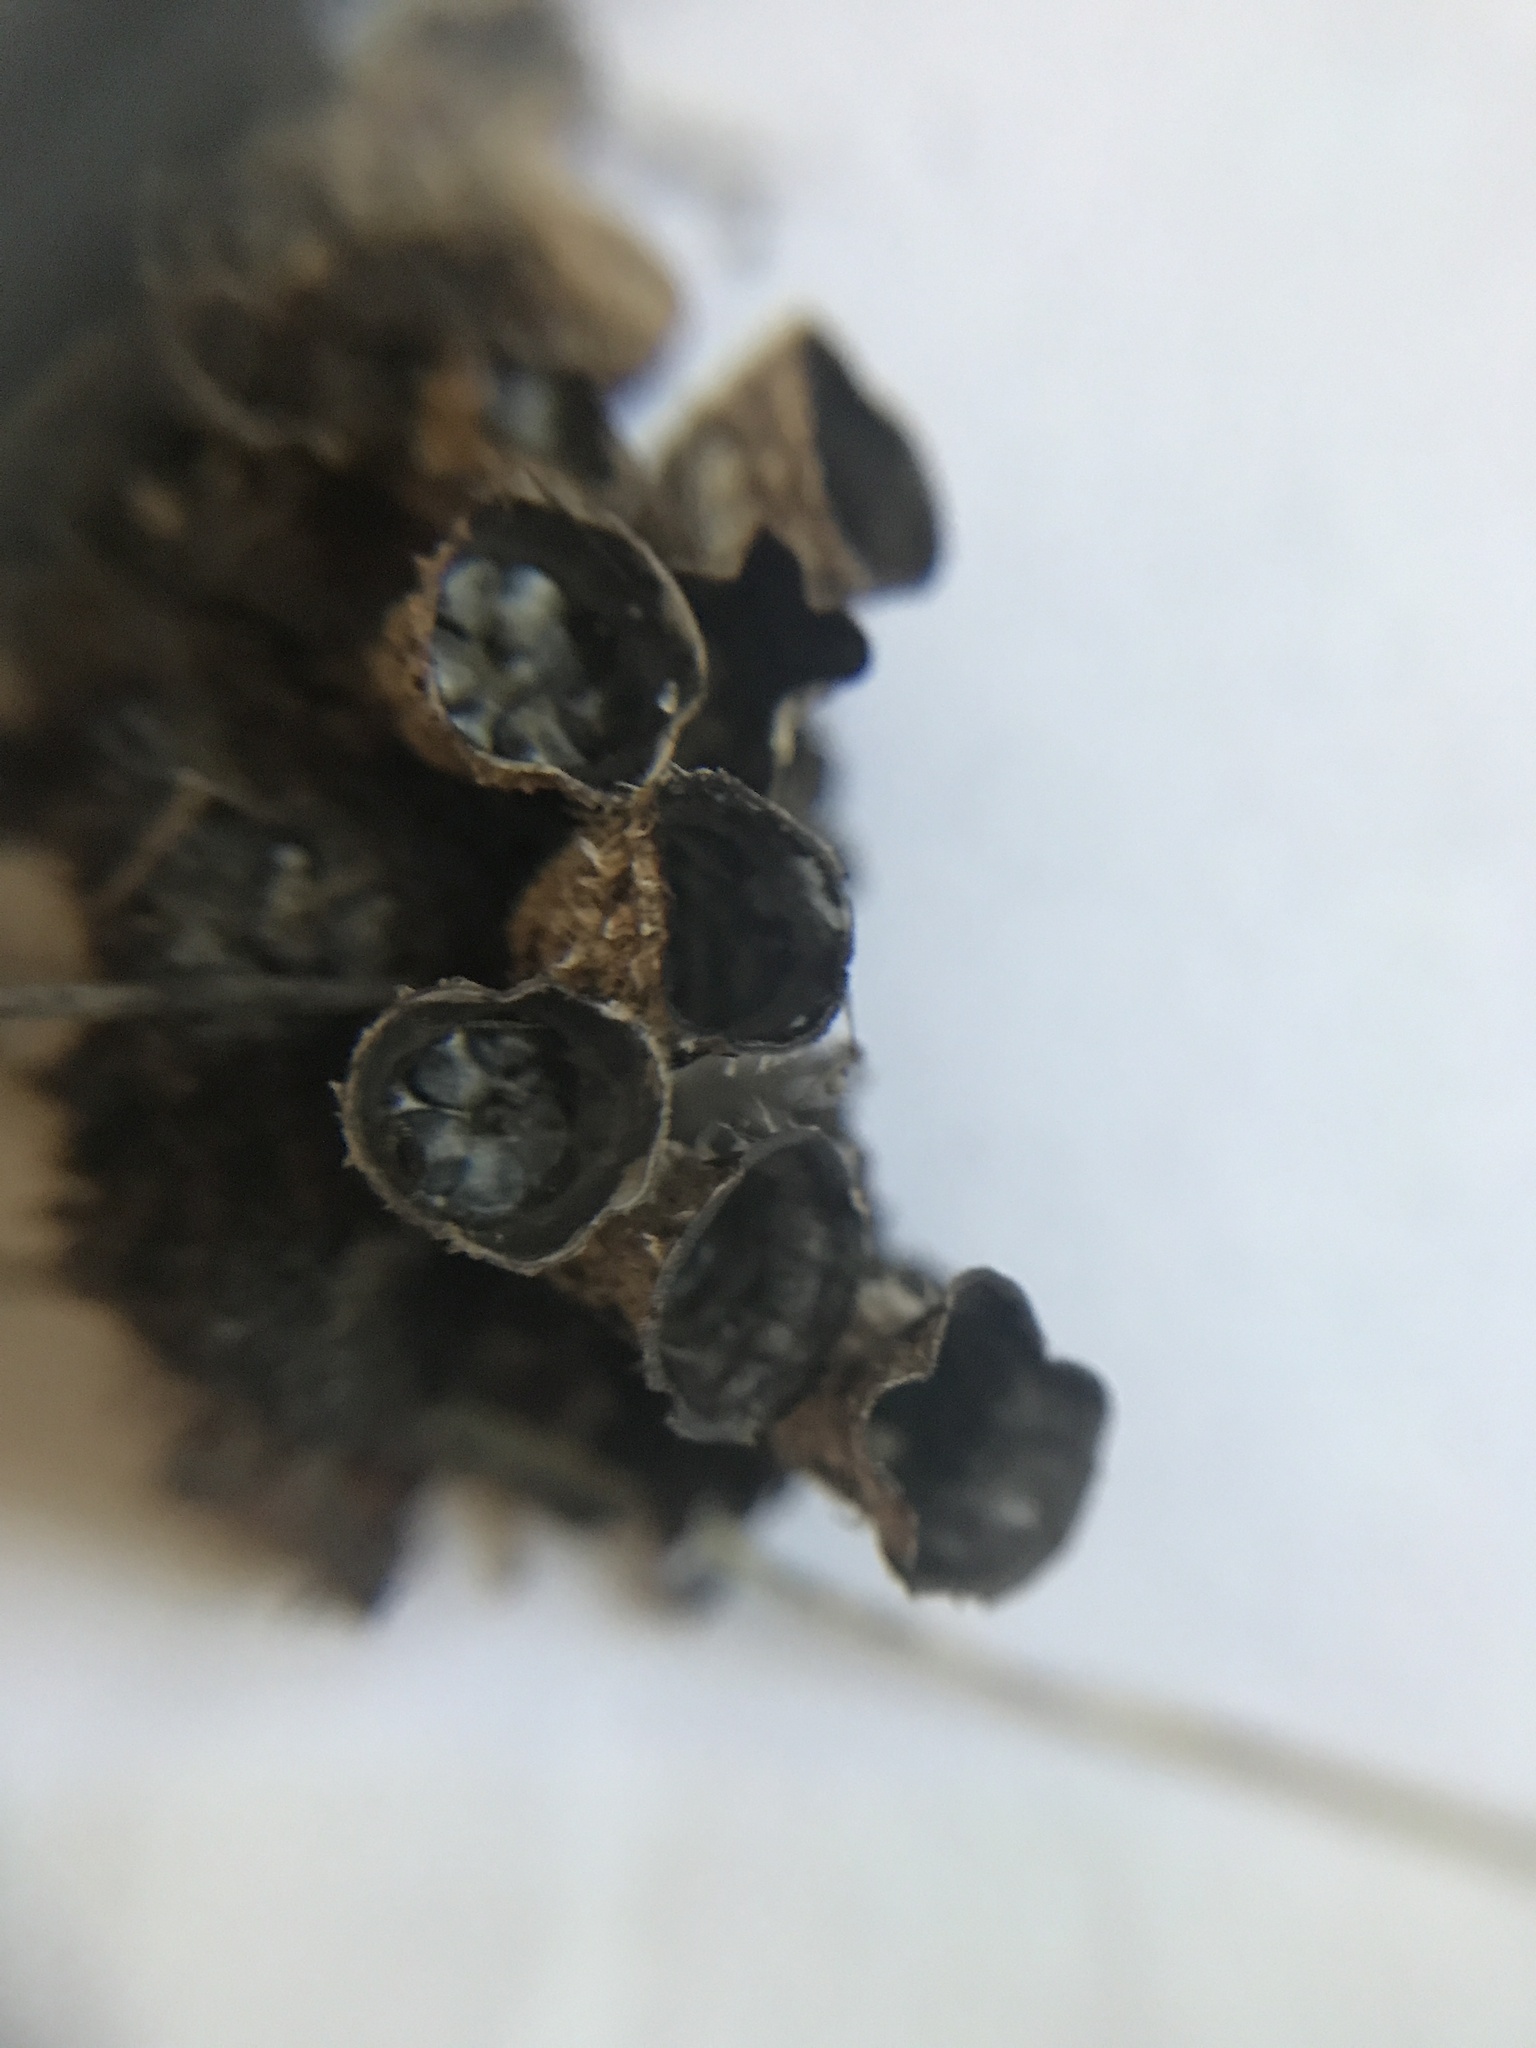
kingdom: Fungi
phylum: Basidiomycota
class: Agaricomycetes
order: Agaricales
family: Agaricaceae
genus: Cyathus
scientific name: Cyathus stercoreus
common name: Dung bird's nest
